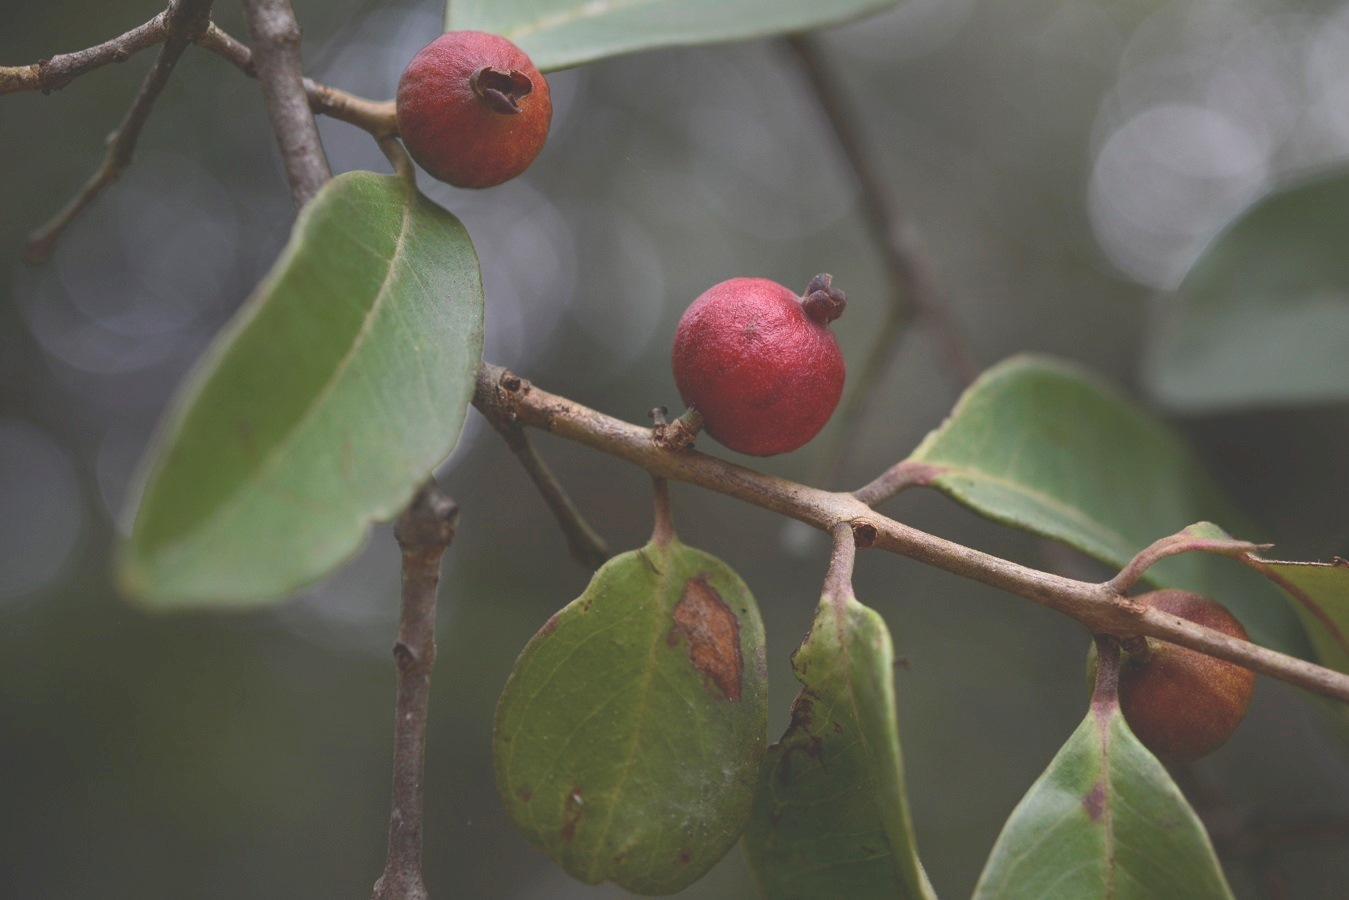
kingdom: Plantae
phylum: Tracheophyta
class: Magnoliopsida
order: Myrtales
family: Myrtaceae
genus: Eugenia
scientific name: Eugenia acapulcensis
